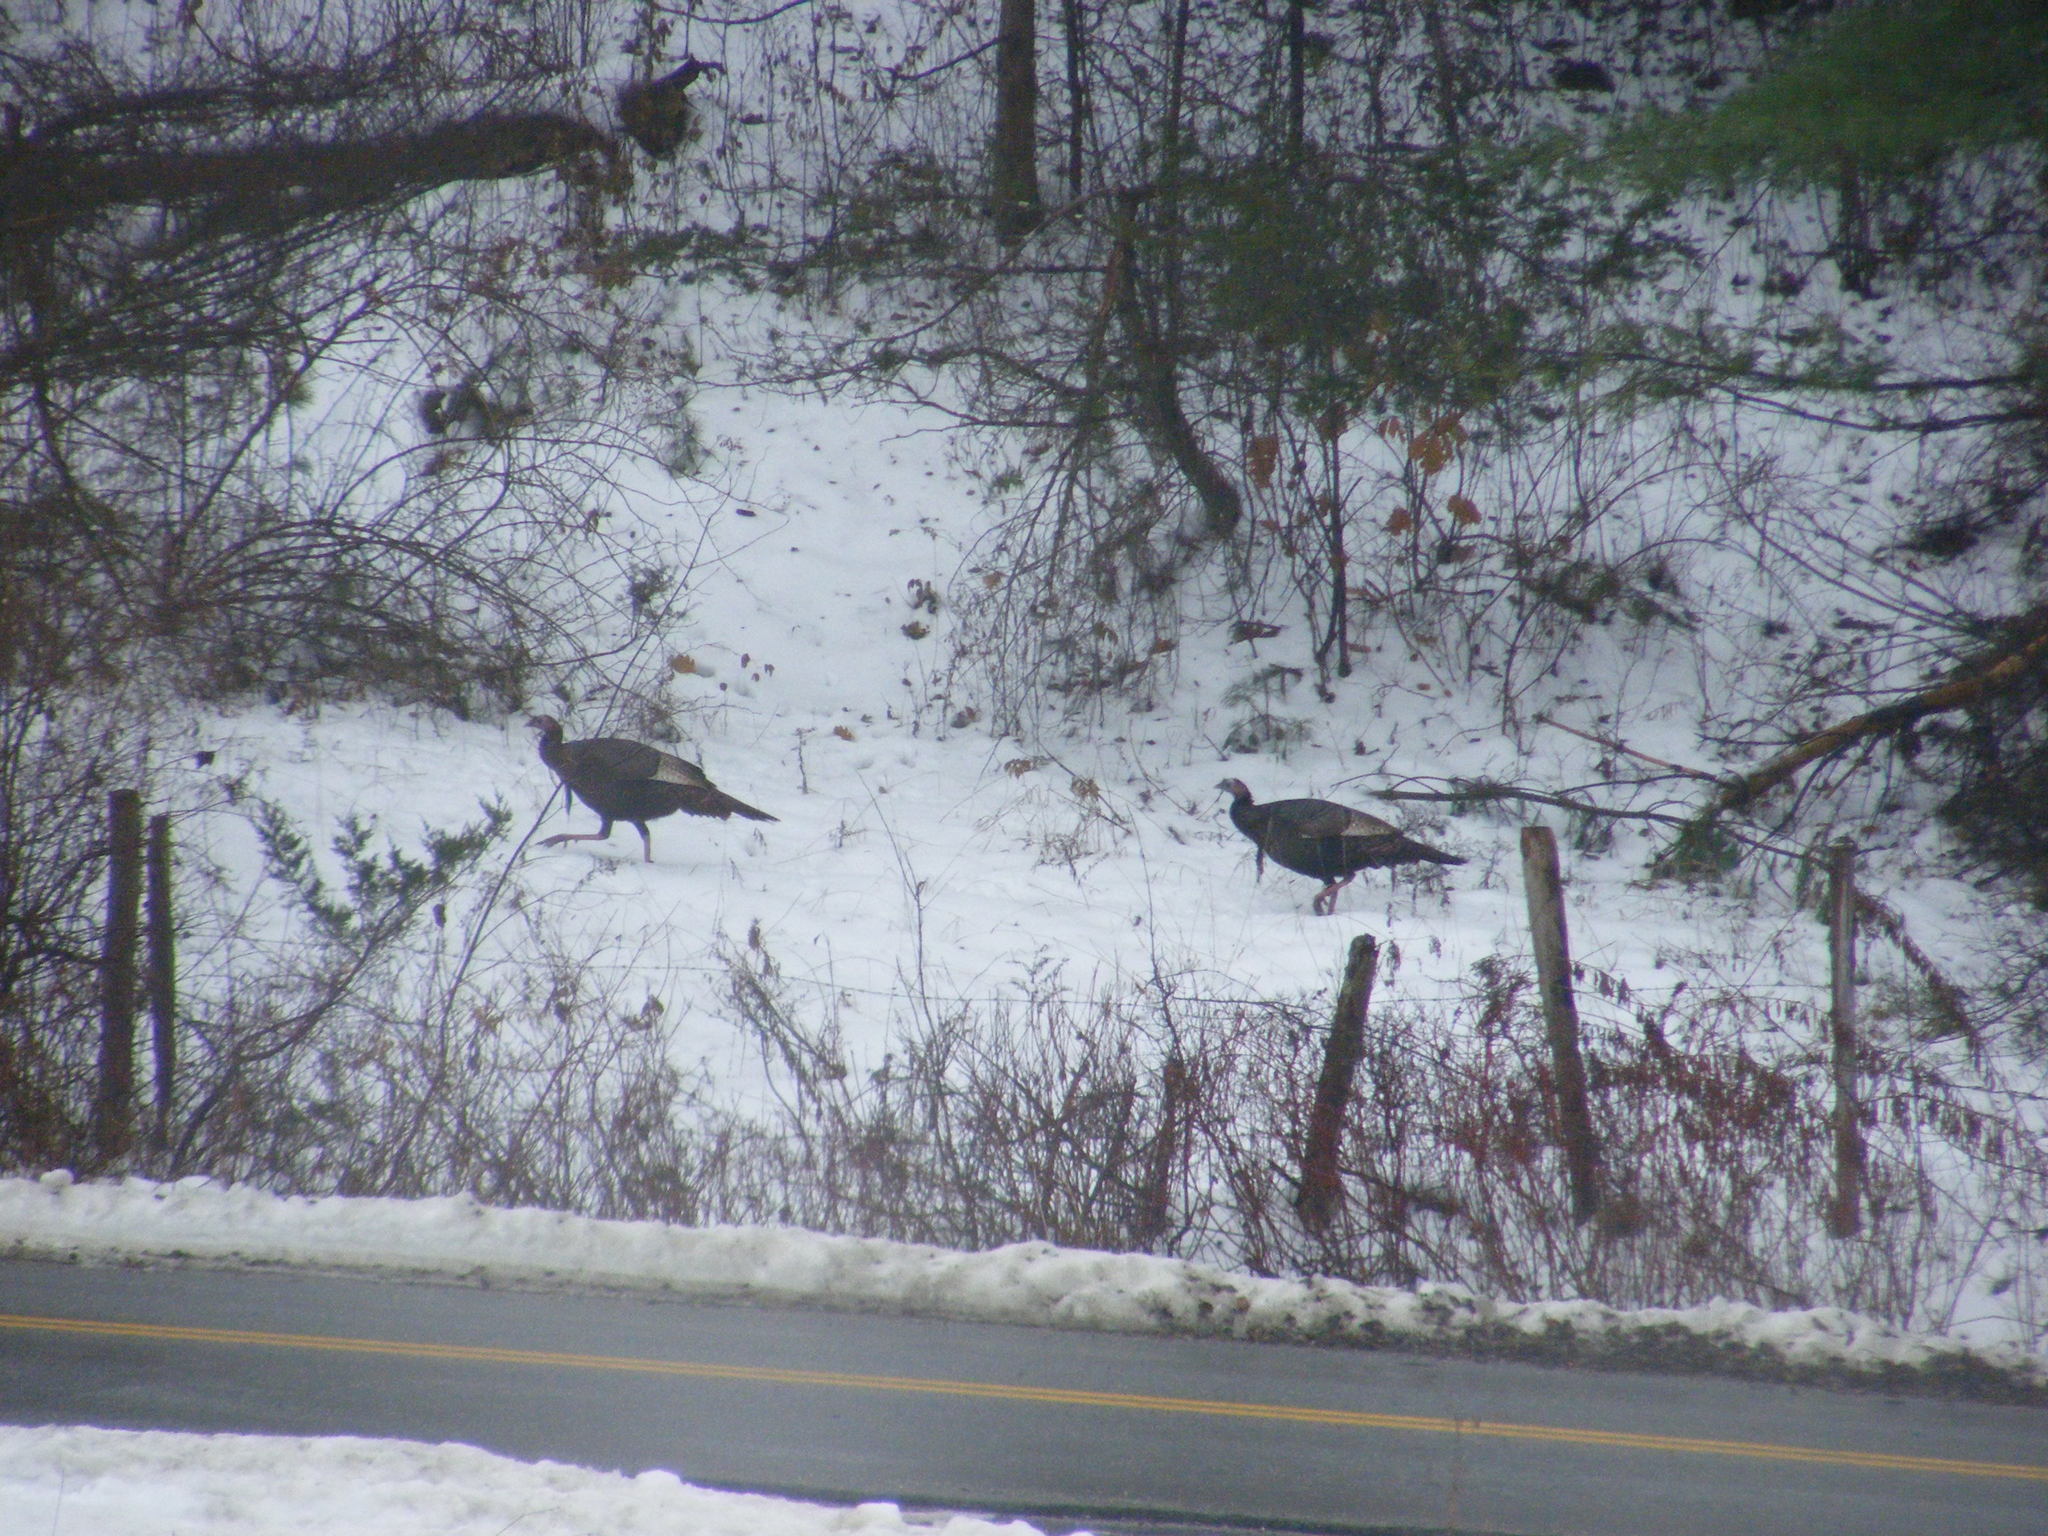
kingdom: Animalia
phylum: Chordata
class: Aves
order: Galliformes
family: Phasianidae
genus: Meleagris
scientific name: Meleagris gallopavo
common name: Wild turkey
